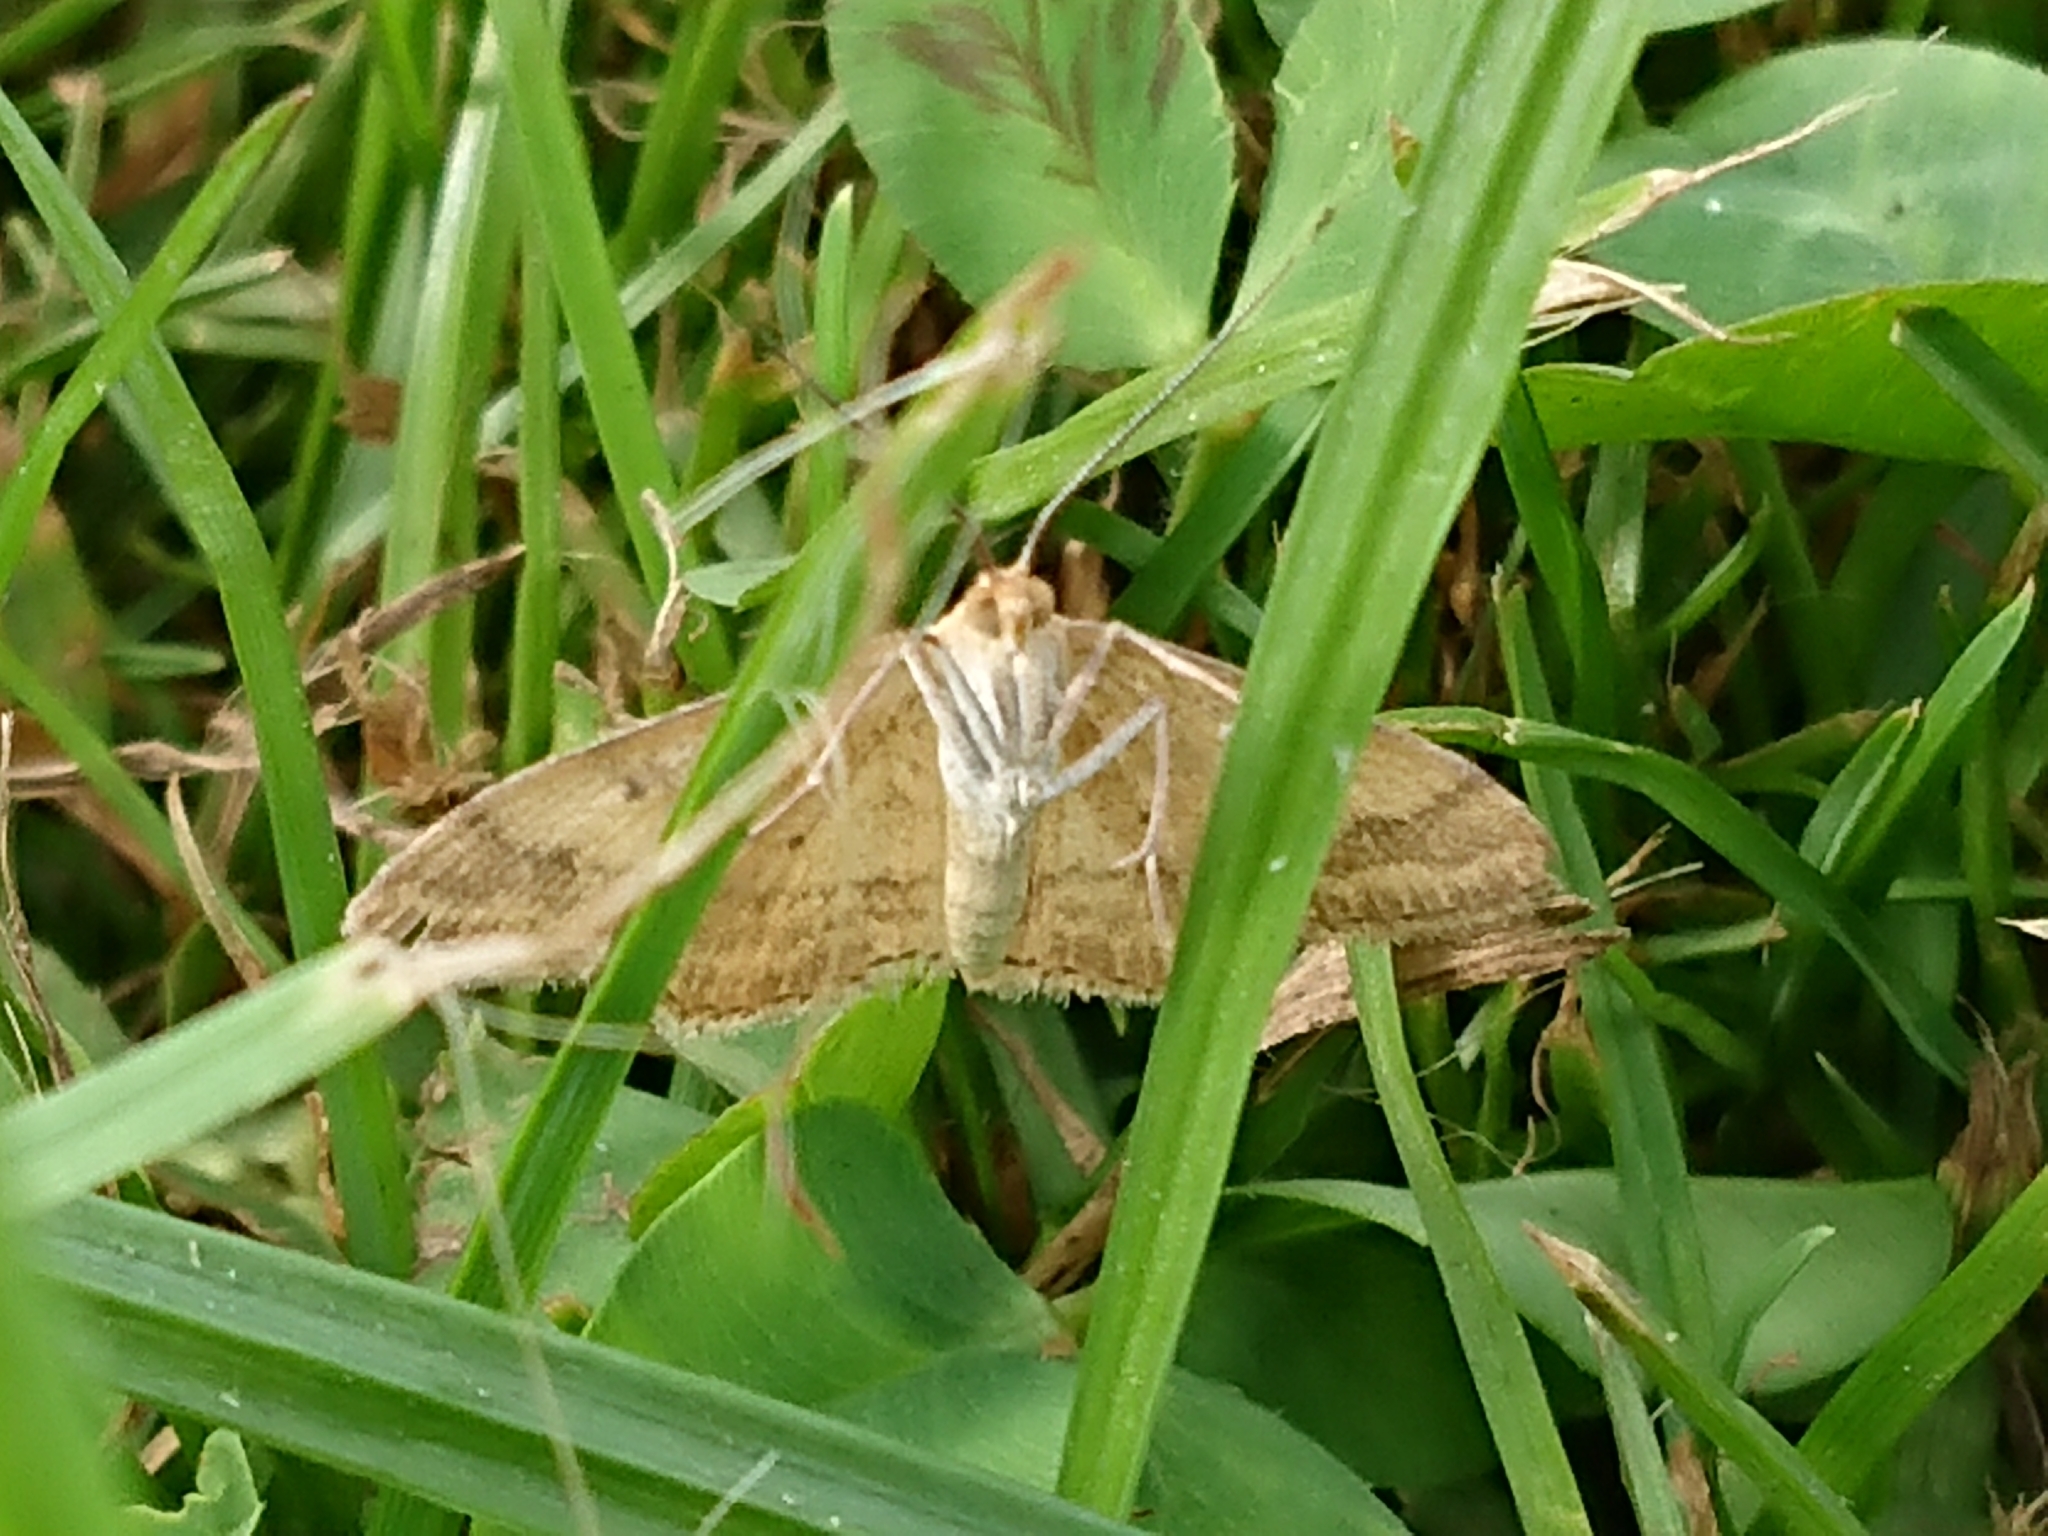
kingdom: Animalia
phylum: Arthropoda
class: Insecta
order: Lepidoptera
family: Geometridae
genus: Scopula
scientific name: Scopula rubraria
